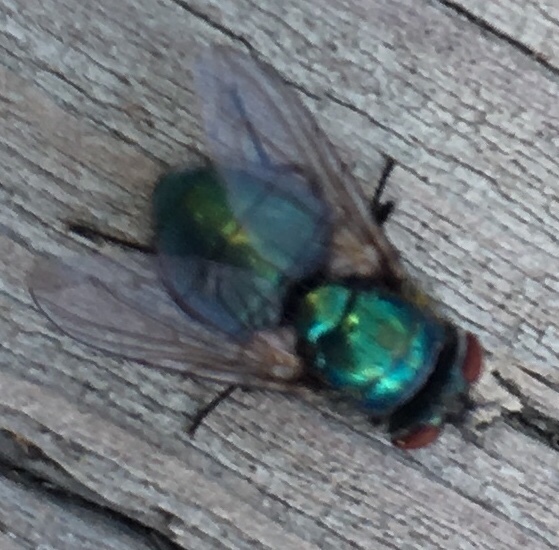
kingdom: Animalia
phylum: Arthropoda
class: Insecta
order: Diptera
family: Calliphoridae
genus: Lucilia
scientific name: Lucilia sericata
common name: Blow fly
